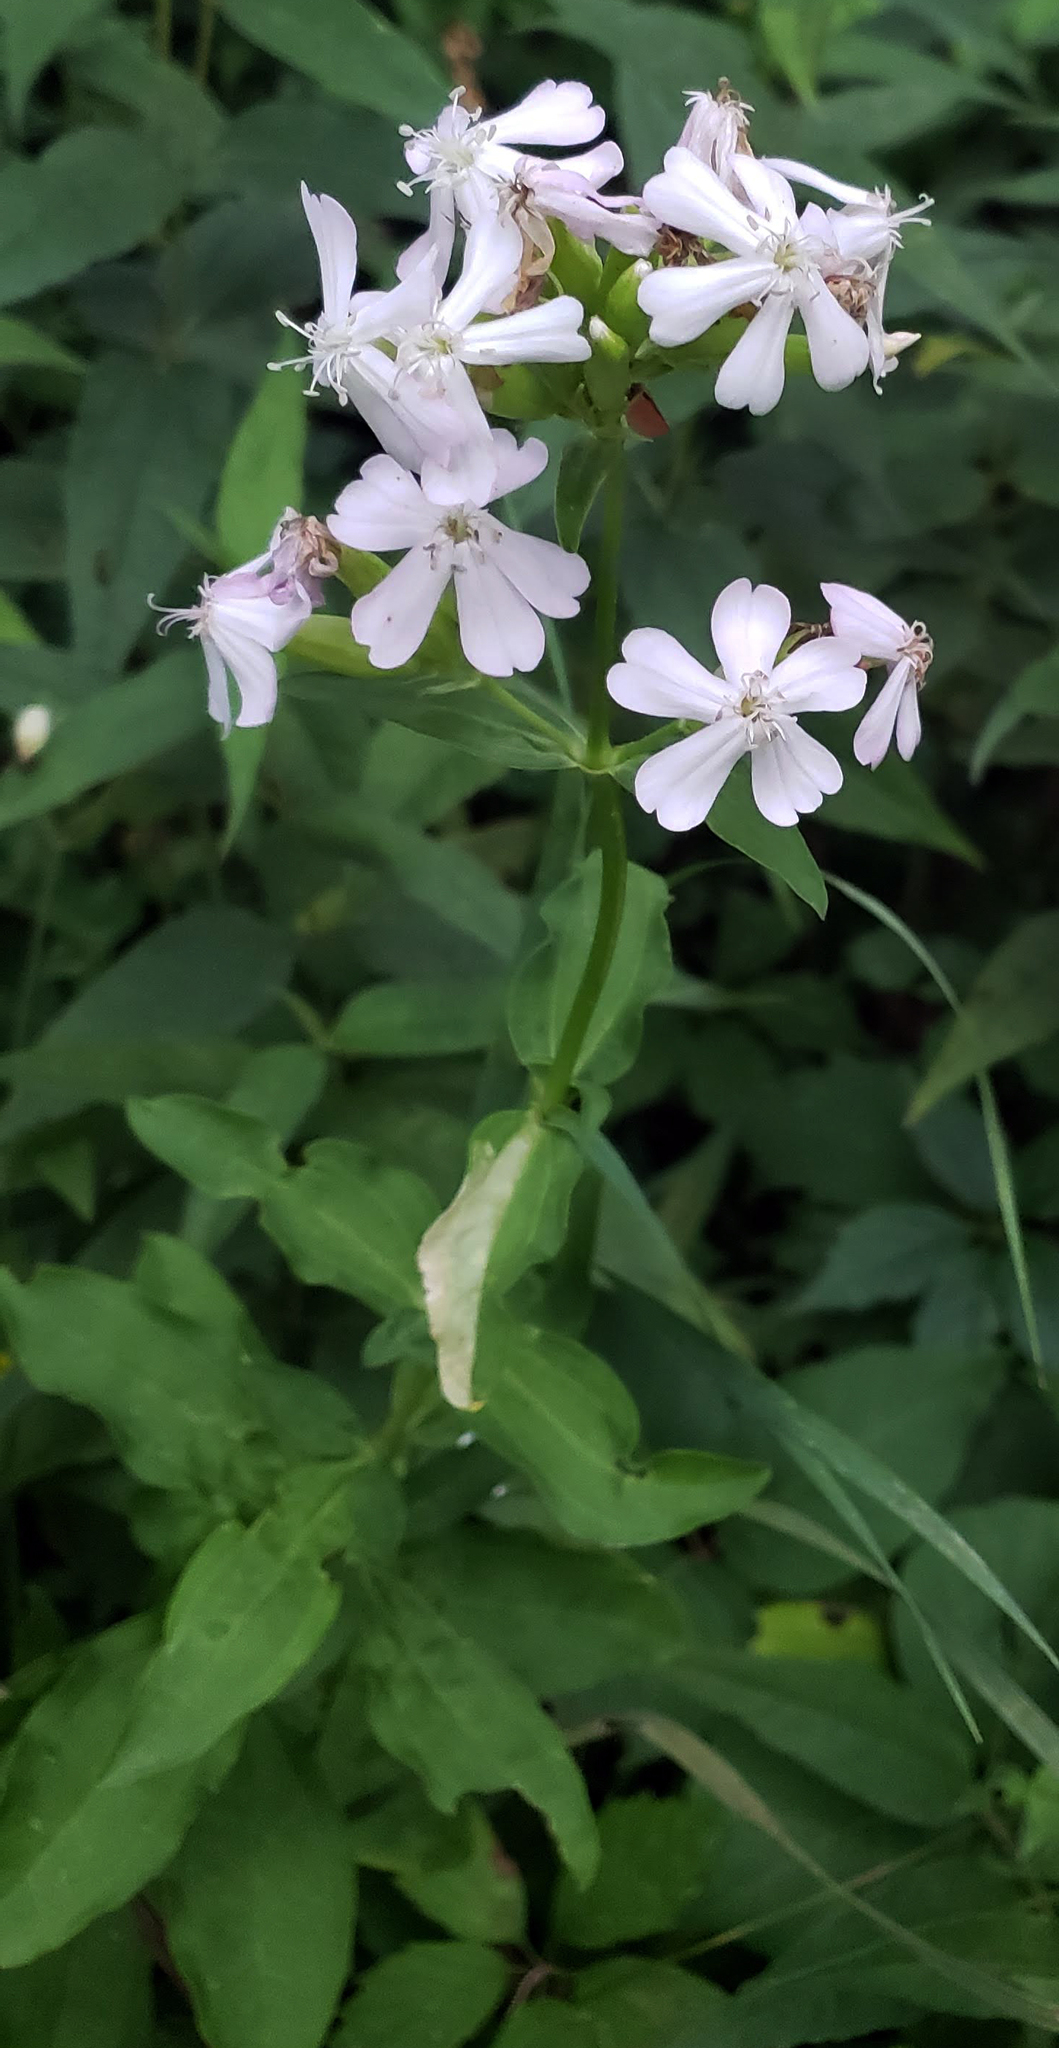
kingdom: Plantae
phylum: Tracheophyta
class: Magnoliopsida
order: Caryophyllales
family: Caryophyllaceae
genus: Saponaria
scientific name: Saponaria officinalis
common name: Soapwort
